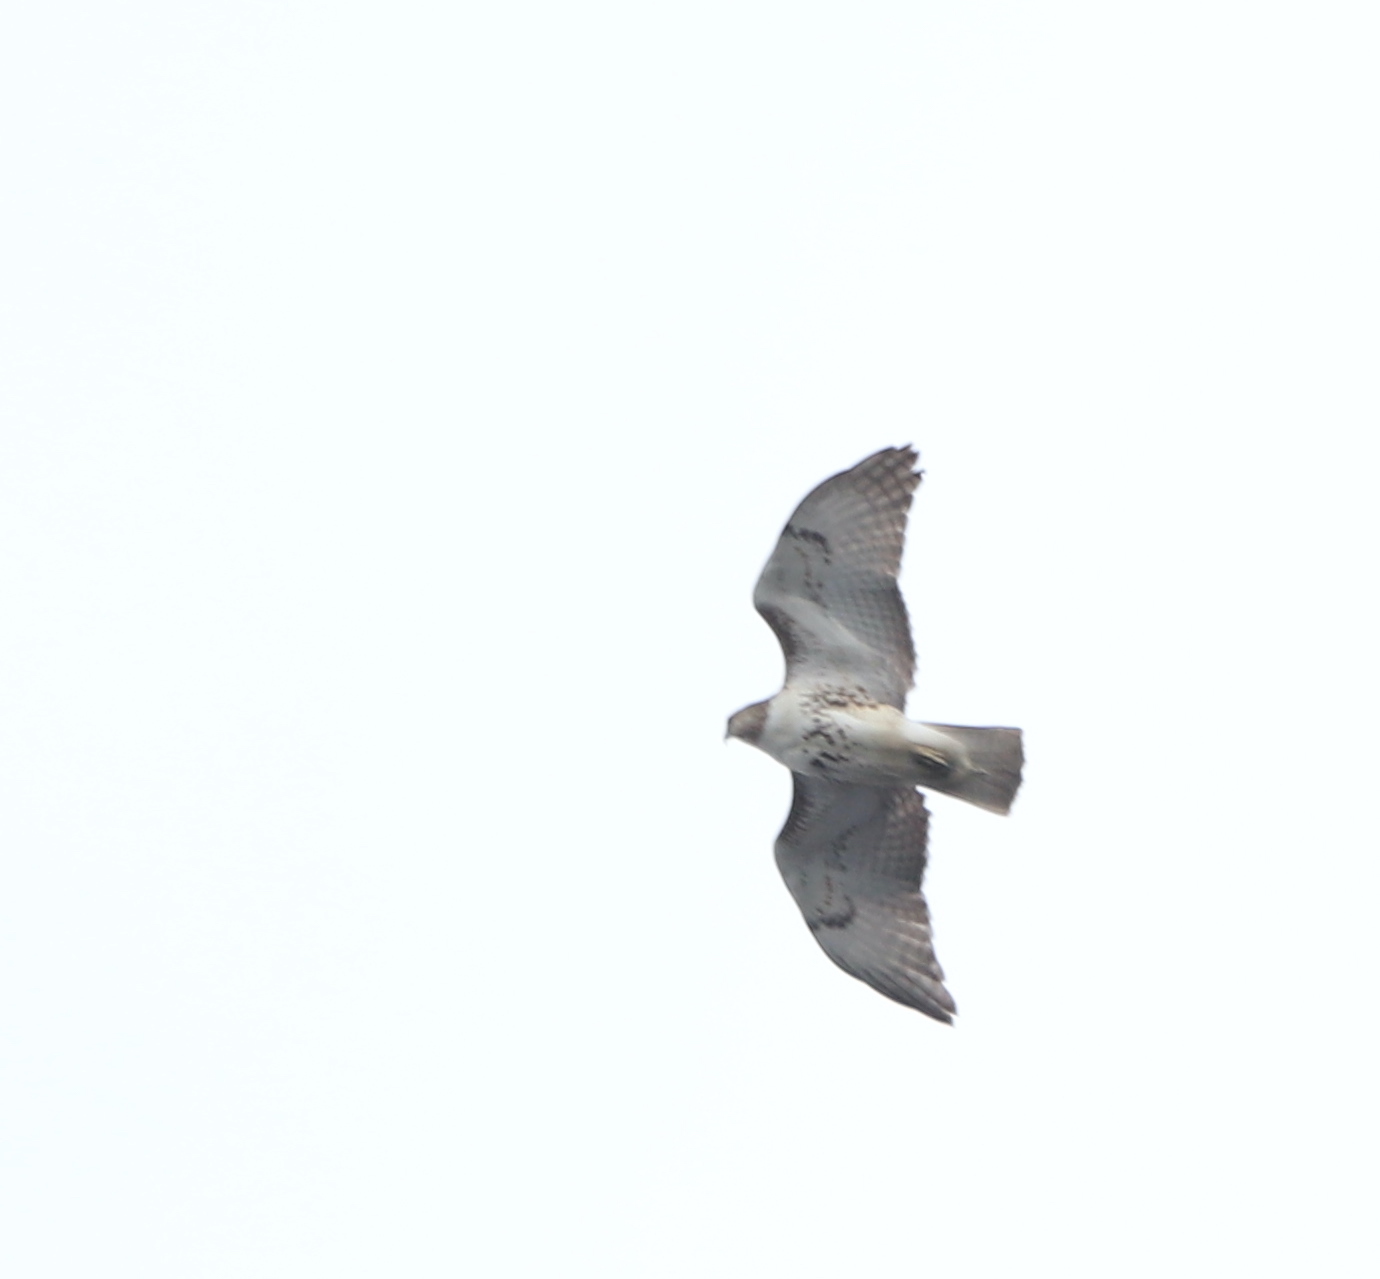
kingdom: Animalia
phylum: Chordata
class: Aves
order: Accipitriformes
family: Accipitridae
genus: Buteo
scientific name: Buteo jamaicensis
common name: Red-tailed hawk
